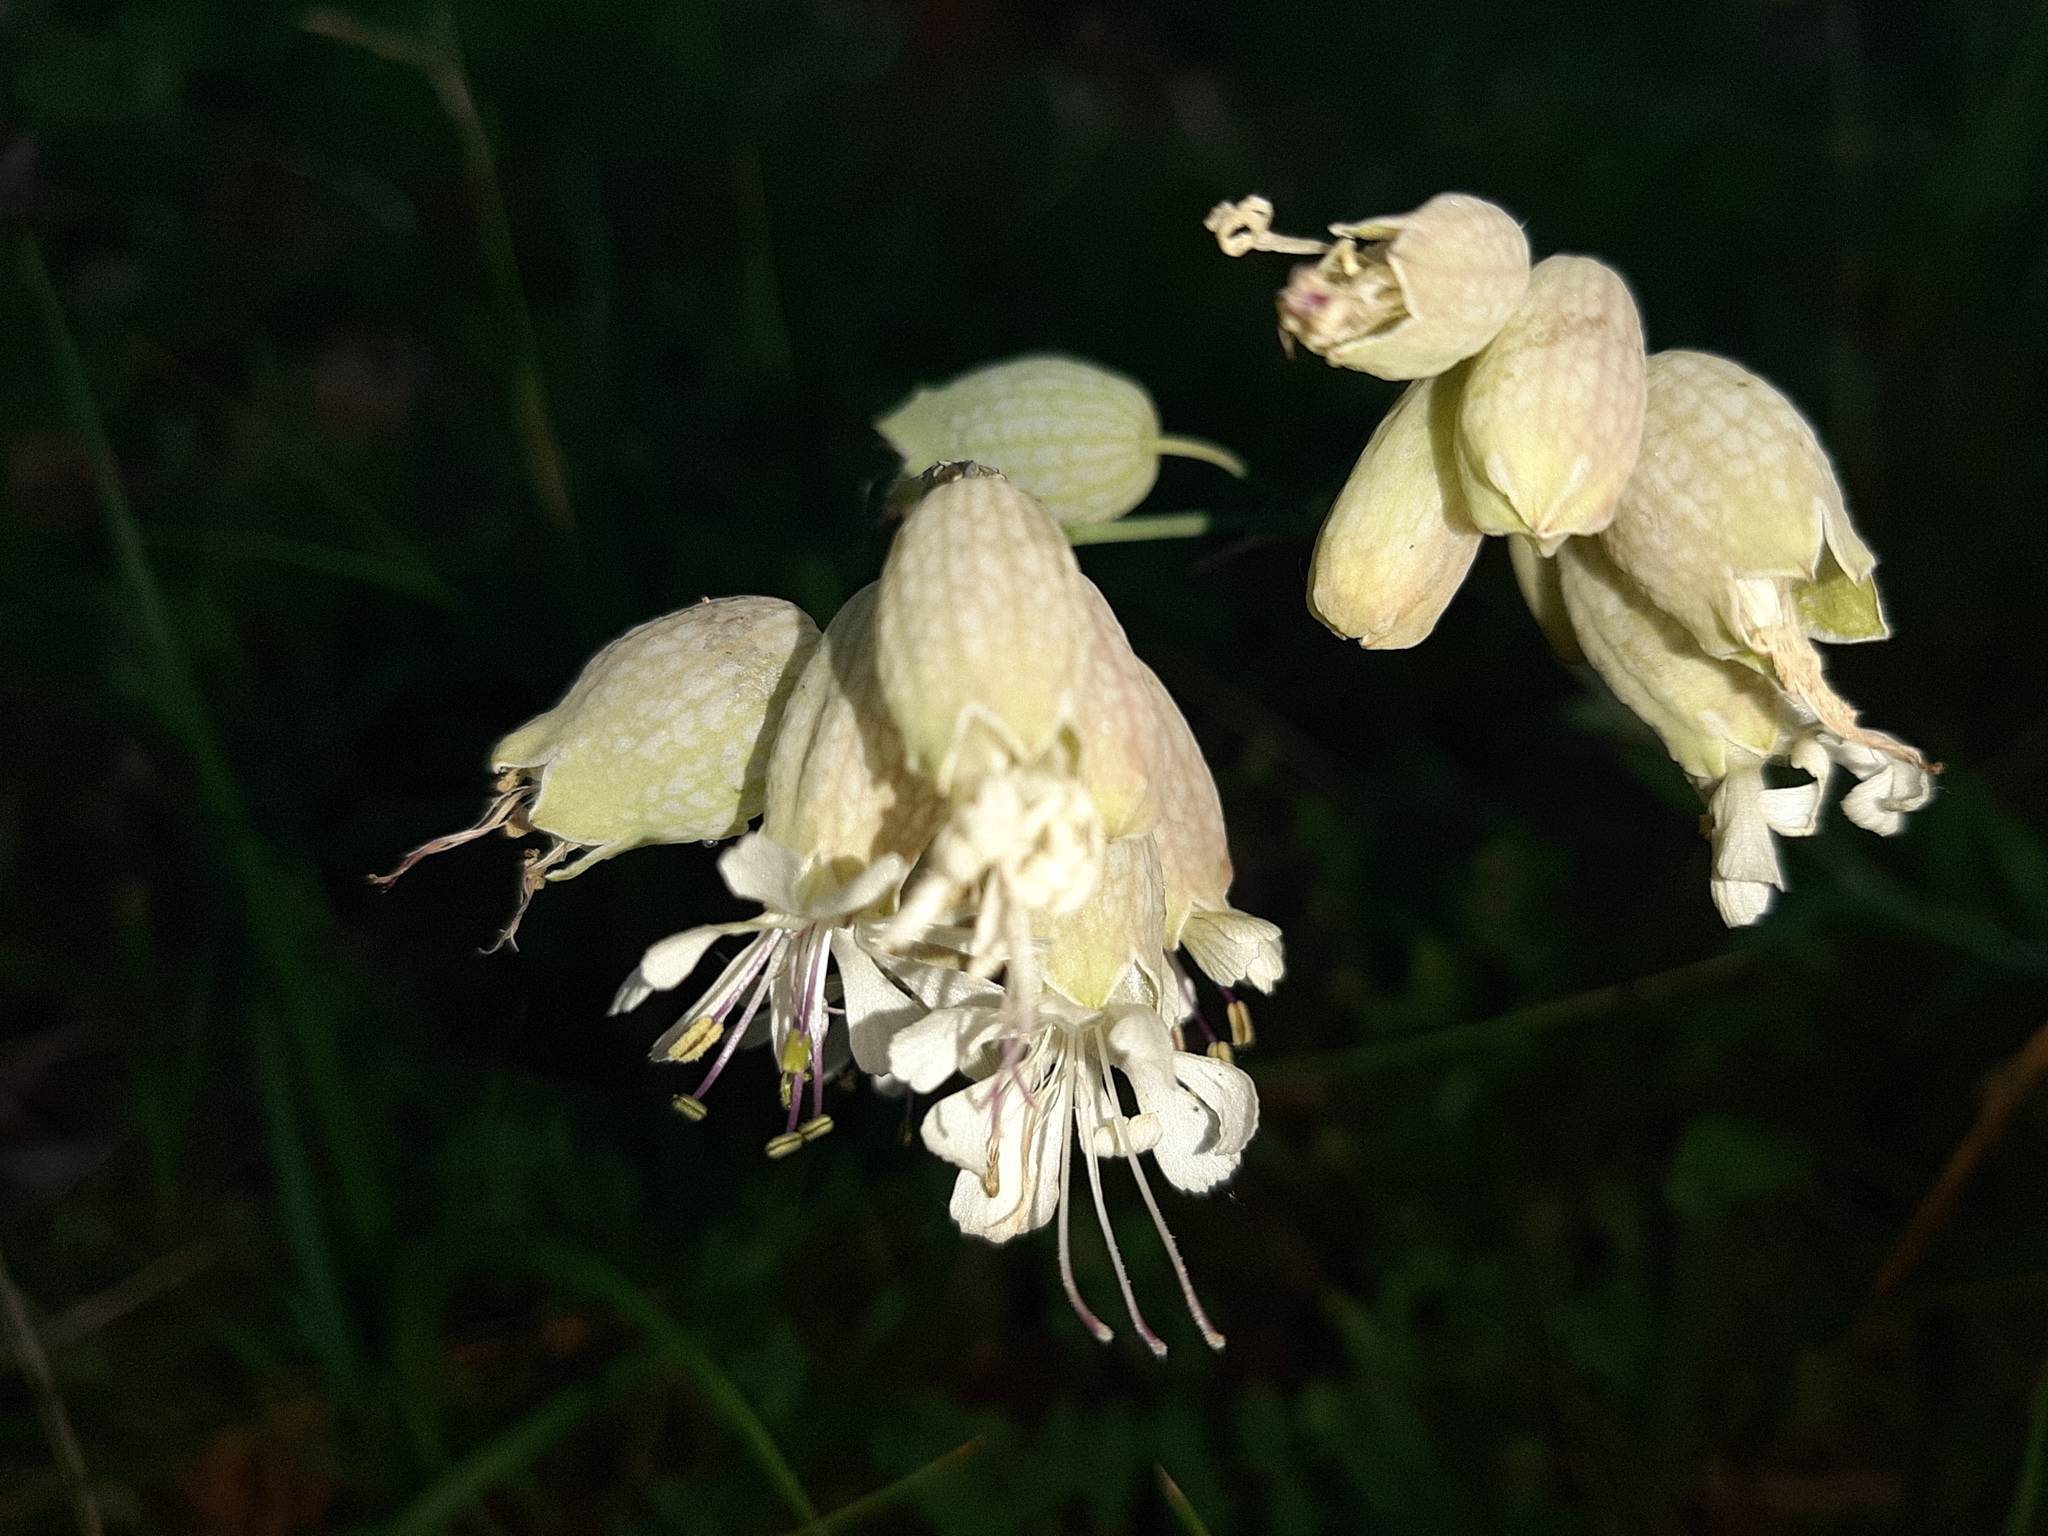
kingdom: Plantae
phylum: Tracheophyta
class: Magnoliopsida
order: Caryophyllales
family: Caryophyllaceae
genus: Silene
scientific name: Silene vulgaris
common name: Bladder campion
